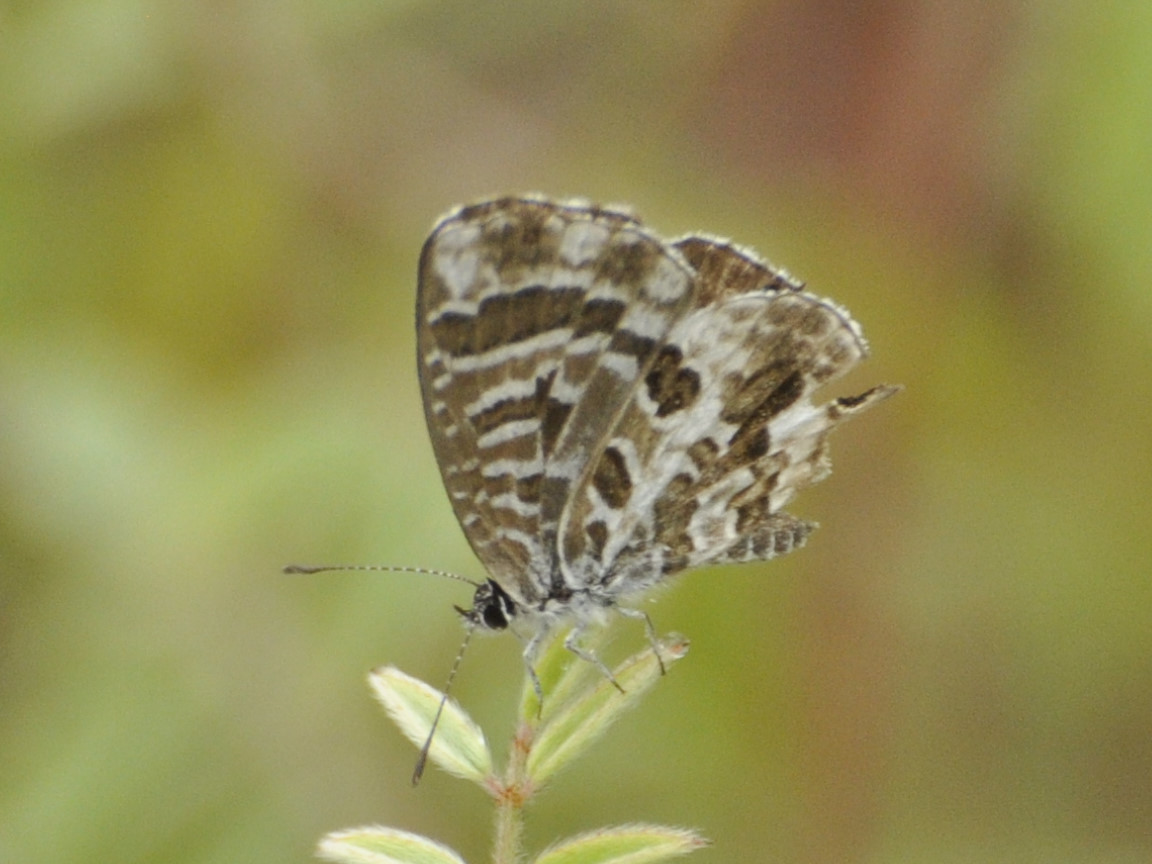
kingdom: Animalia
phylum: Arthropoda
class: Insecta
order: Lepidoptera
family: Lycaenidae
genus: Cacyreus
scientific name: Cacyreus virilis
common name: Alternative bush blue
